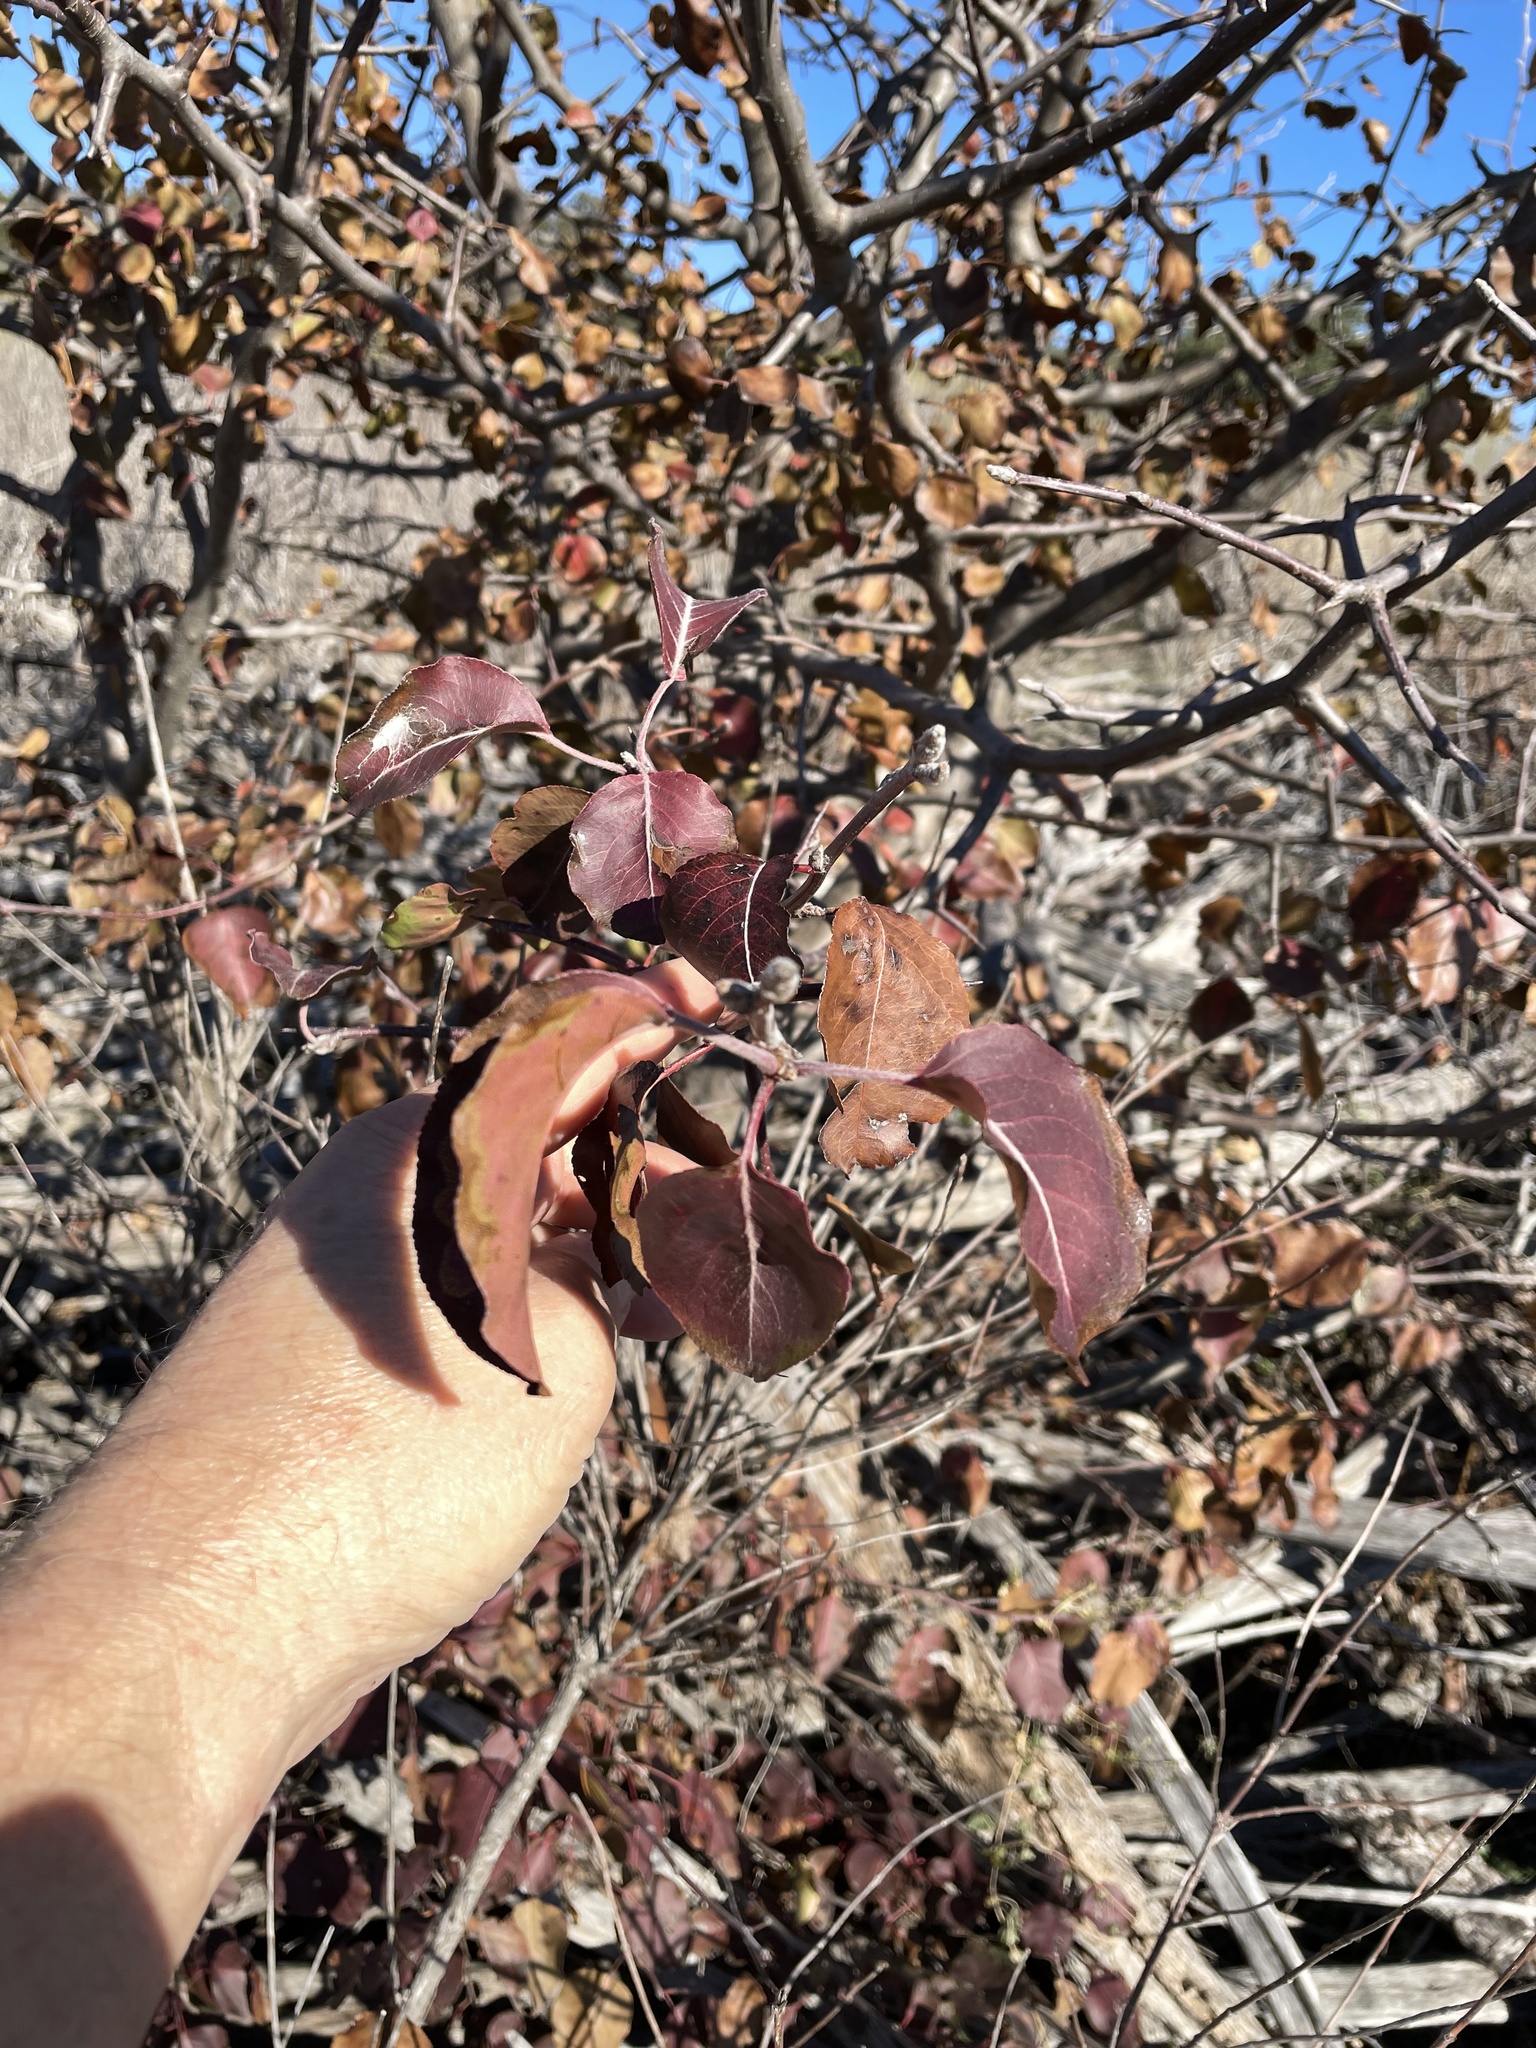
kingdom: Plantae
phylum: Tracheophyta
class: Magnoliopsida
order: Rosales
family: Rosaceae
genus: Pyrus
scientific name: Pyrus calleryana
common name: Callery pear
